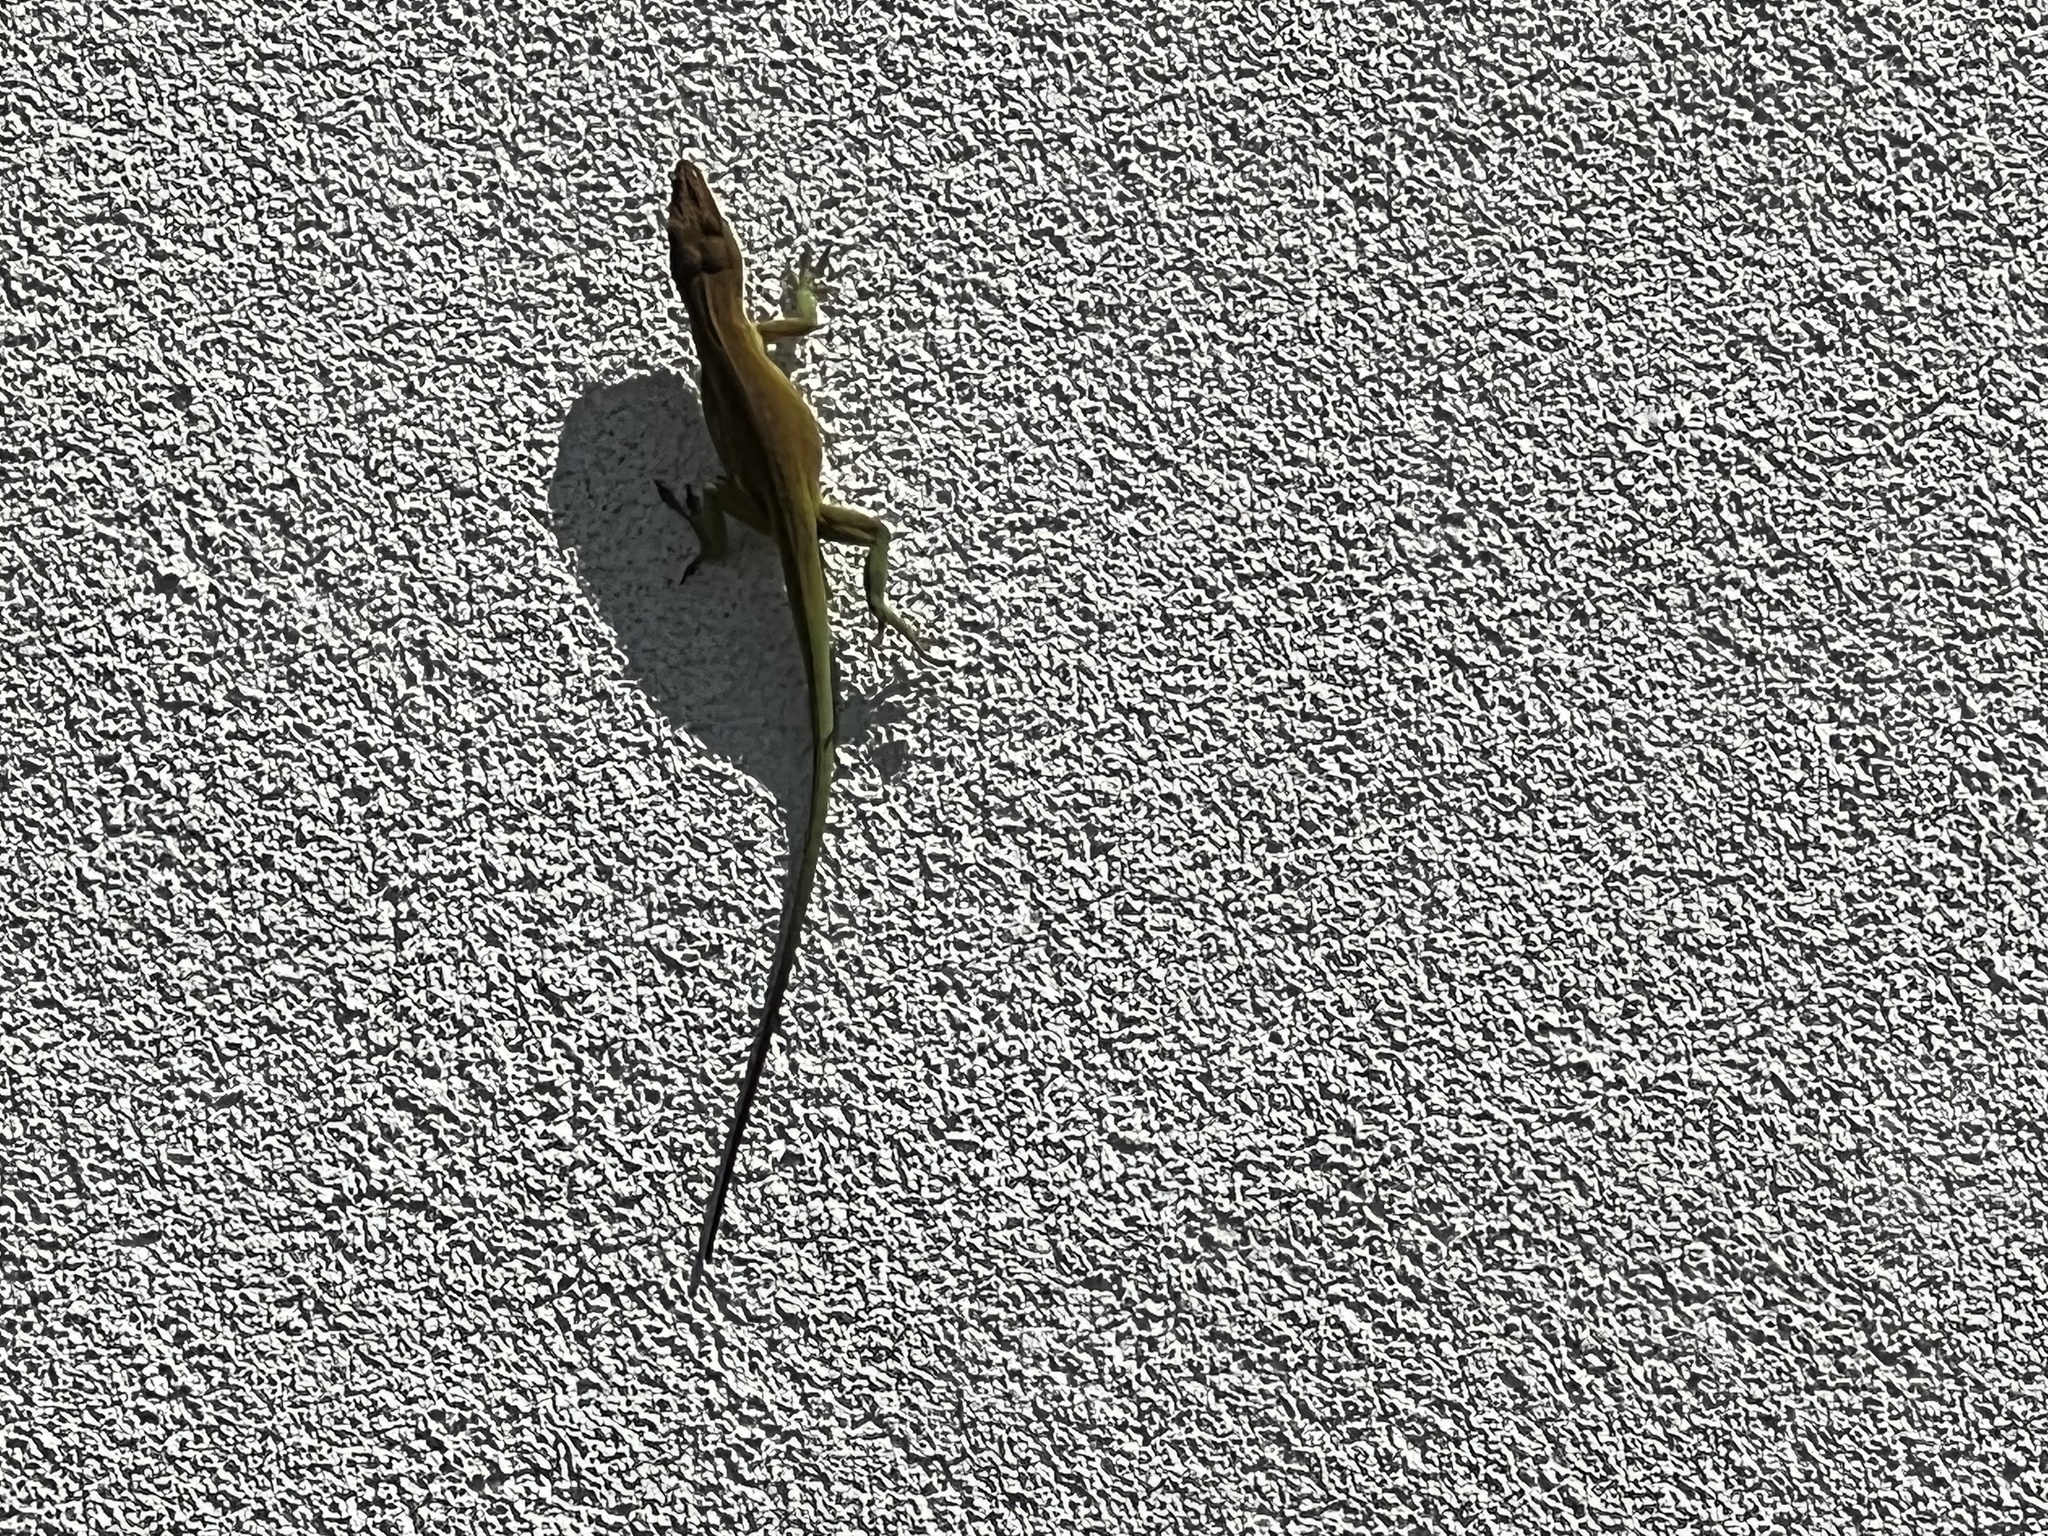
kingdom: Animalia
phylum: Chordata
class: Squamata
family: Dactyloidae
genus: Anolis
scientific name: Anolis carolinensis
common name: Green anole
